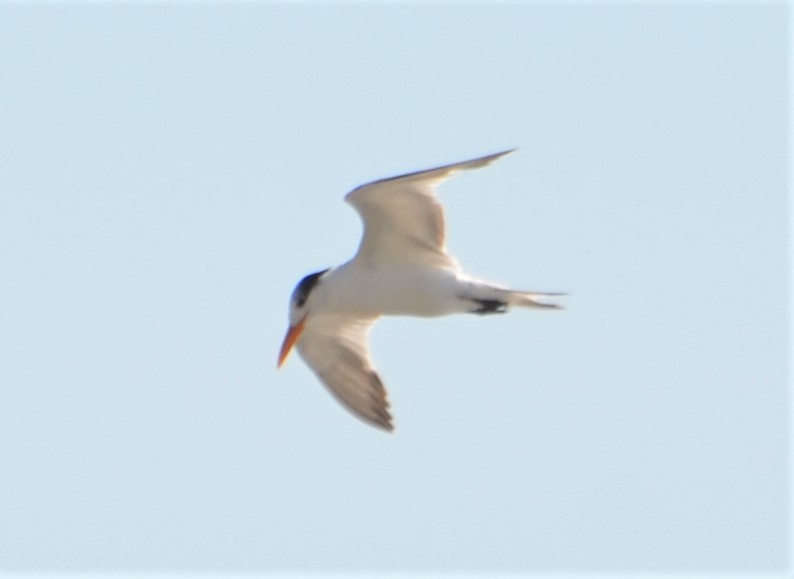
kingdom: Animalia
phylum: Chordata
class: Aves
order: Charadriiformes
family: Laridae
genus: Thalasseus
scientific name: Thalasseus maximus
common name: Royal tern
